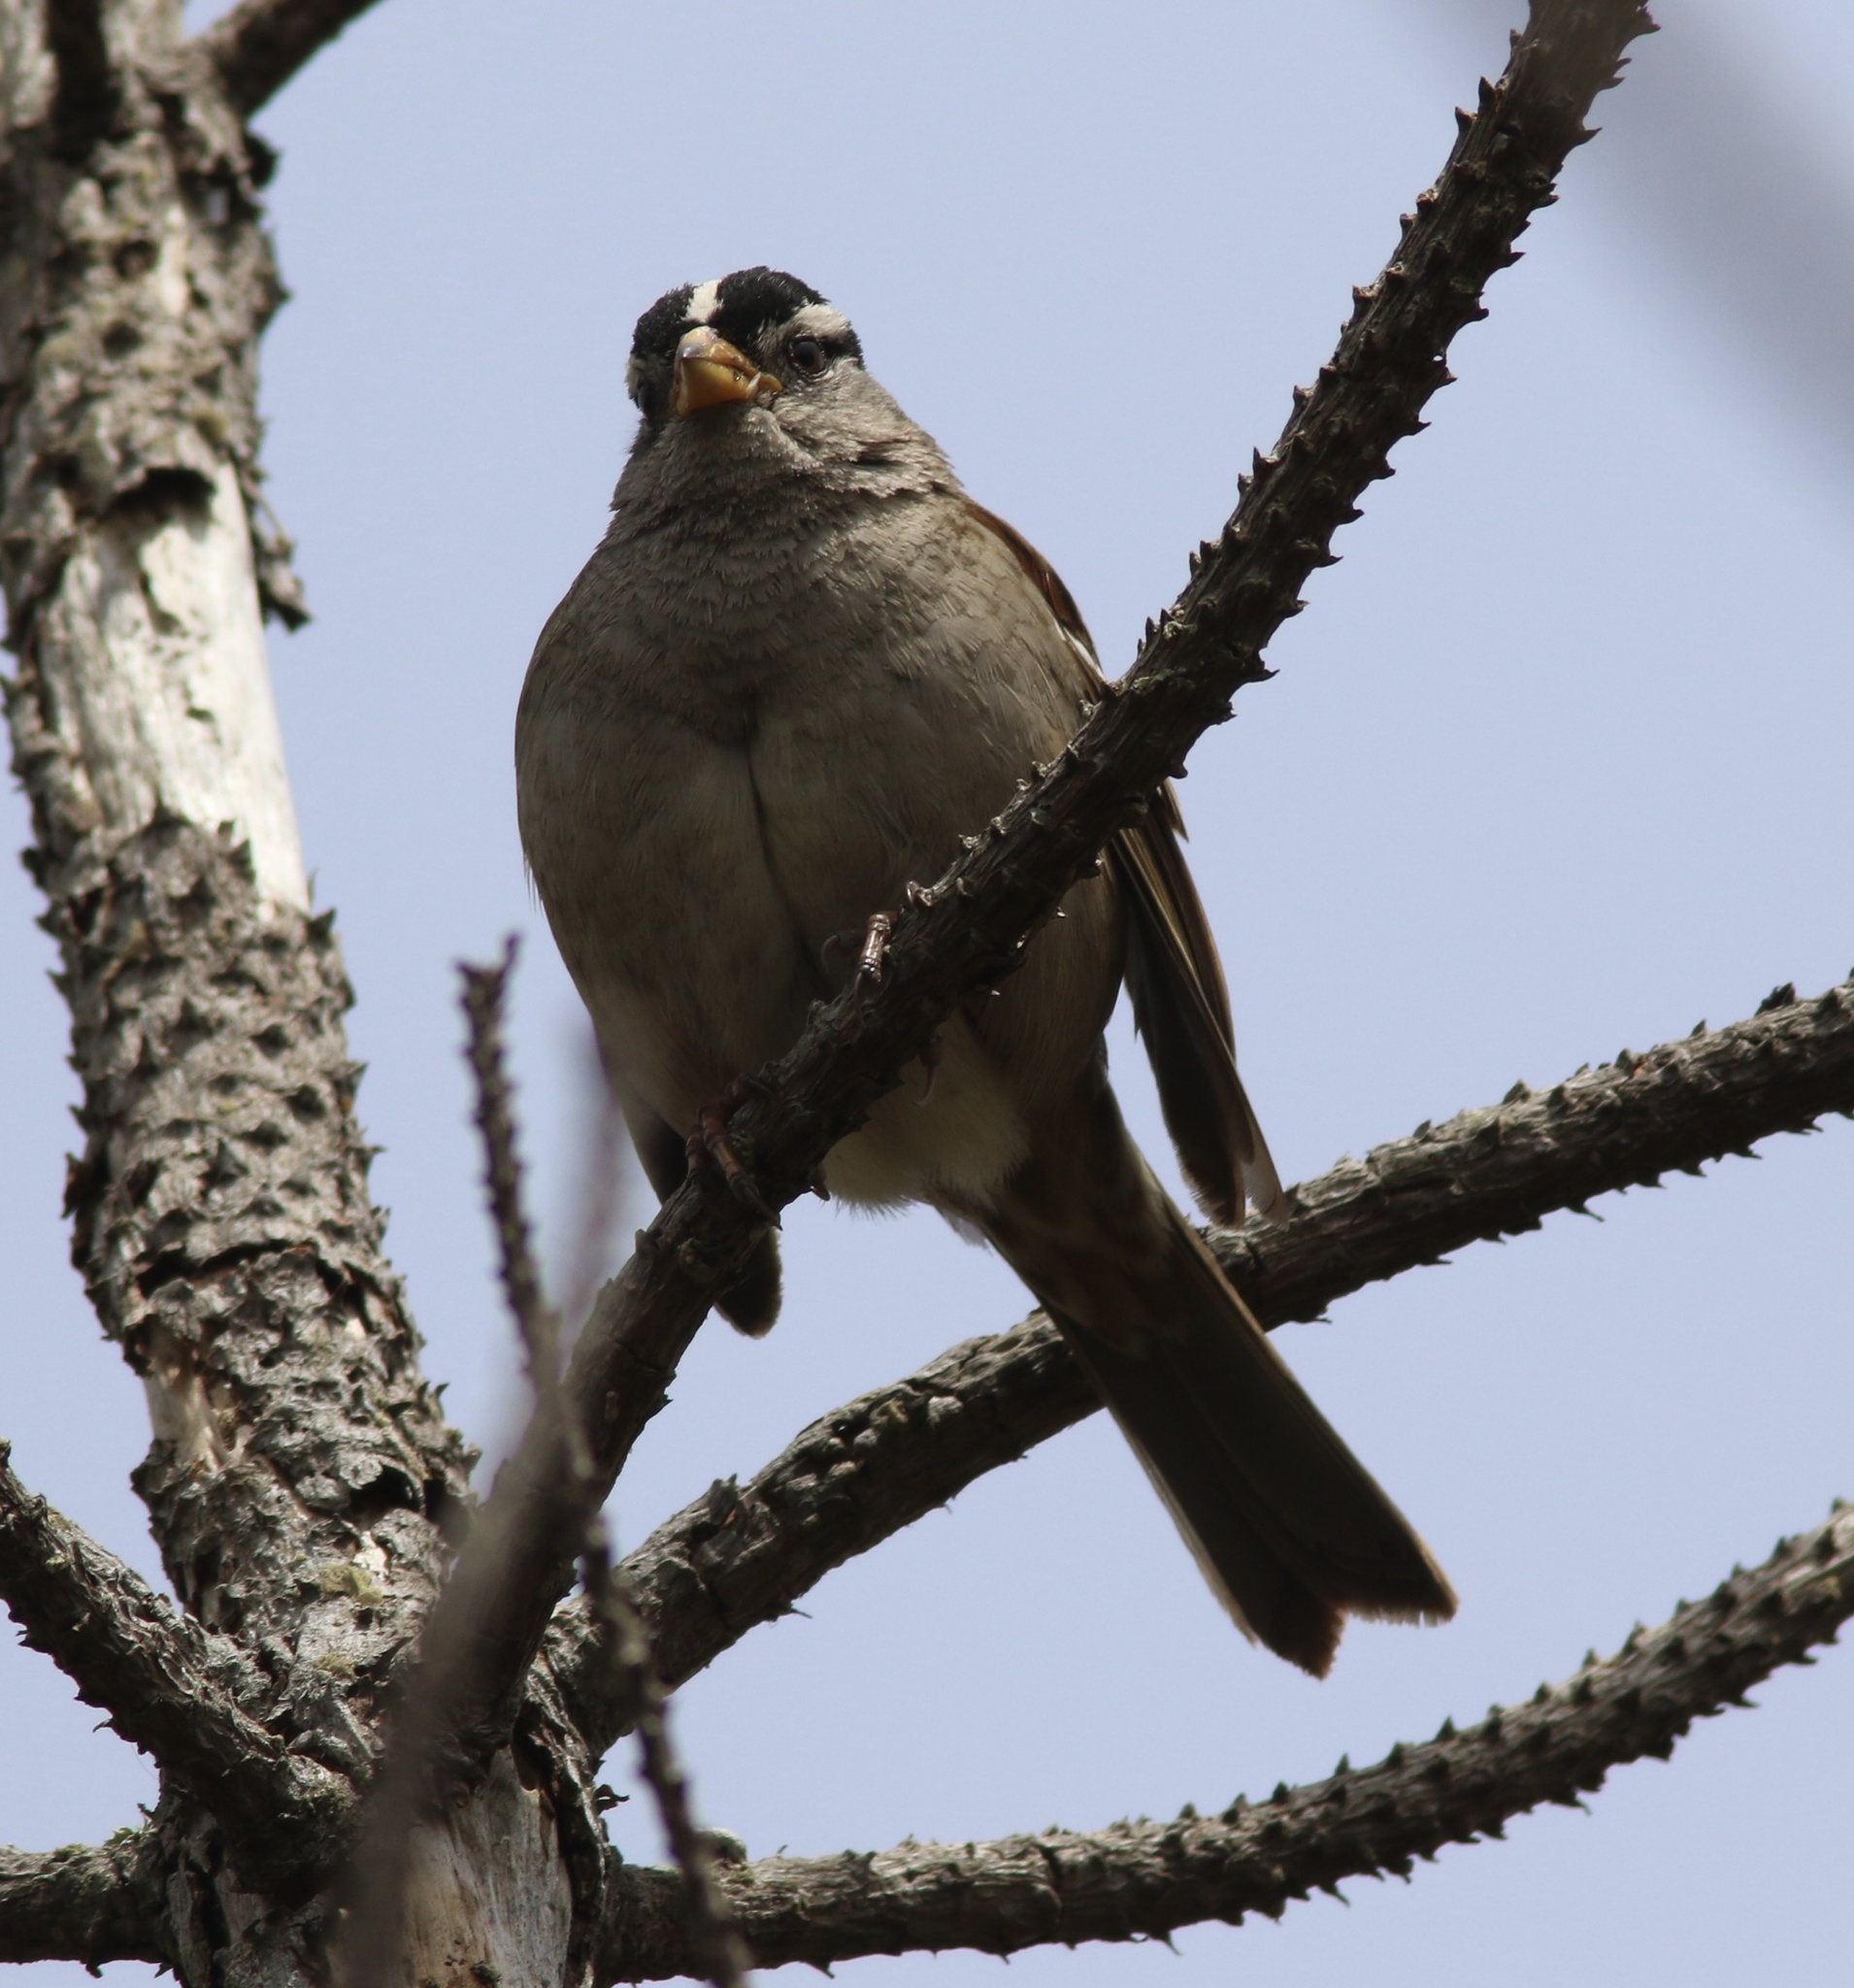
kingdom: Animalia
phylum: Chordata
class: Aves
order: Passeriformes
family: Passerellidae
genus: Zonotrichia
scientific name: Zonotrichia leucophrys
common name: White-crowned sparrow
